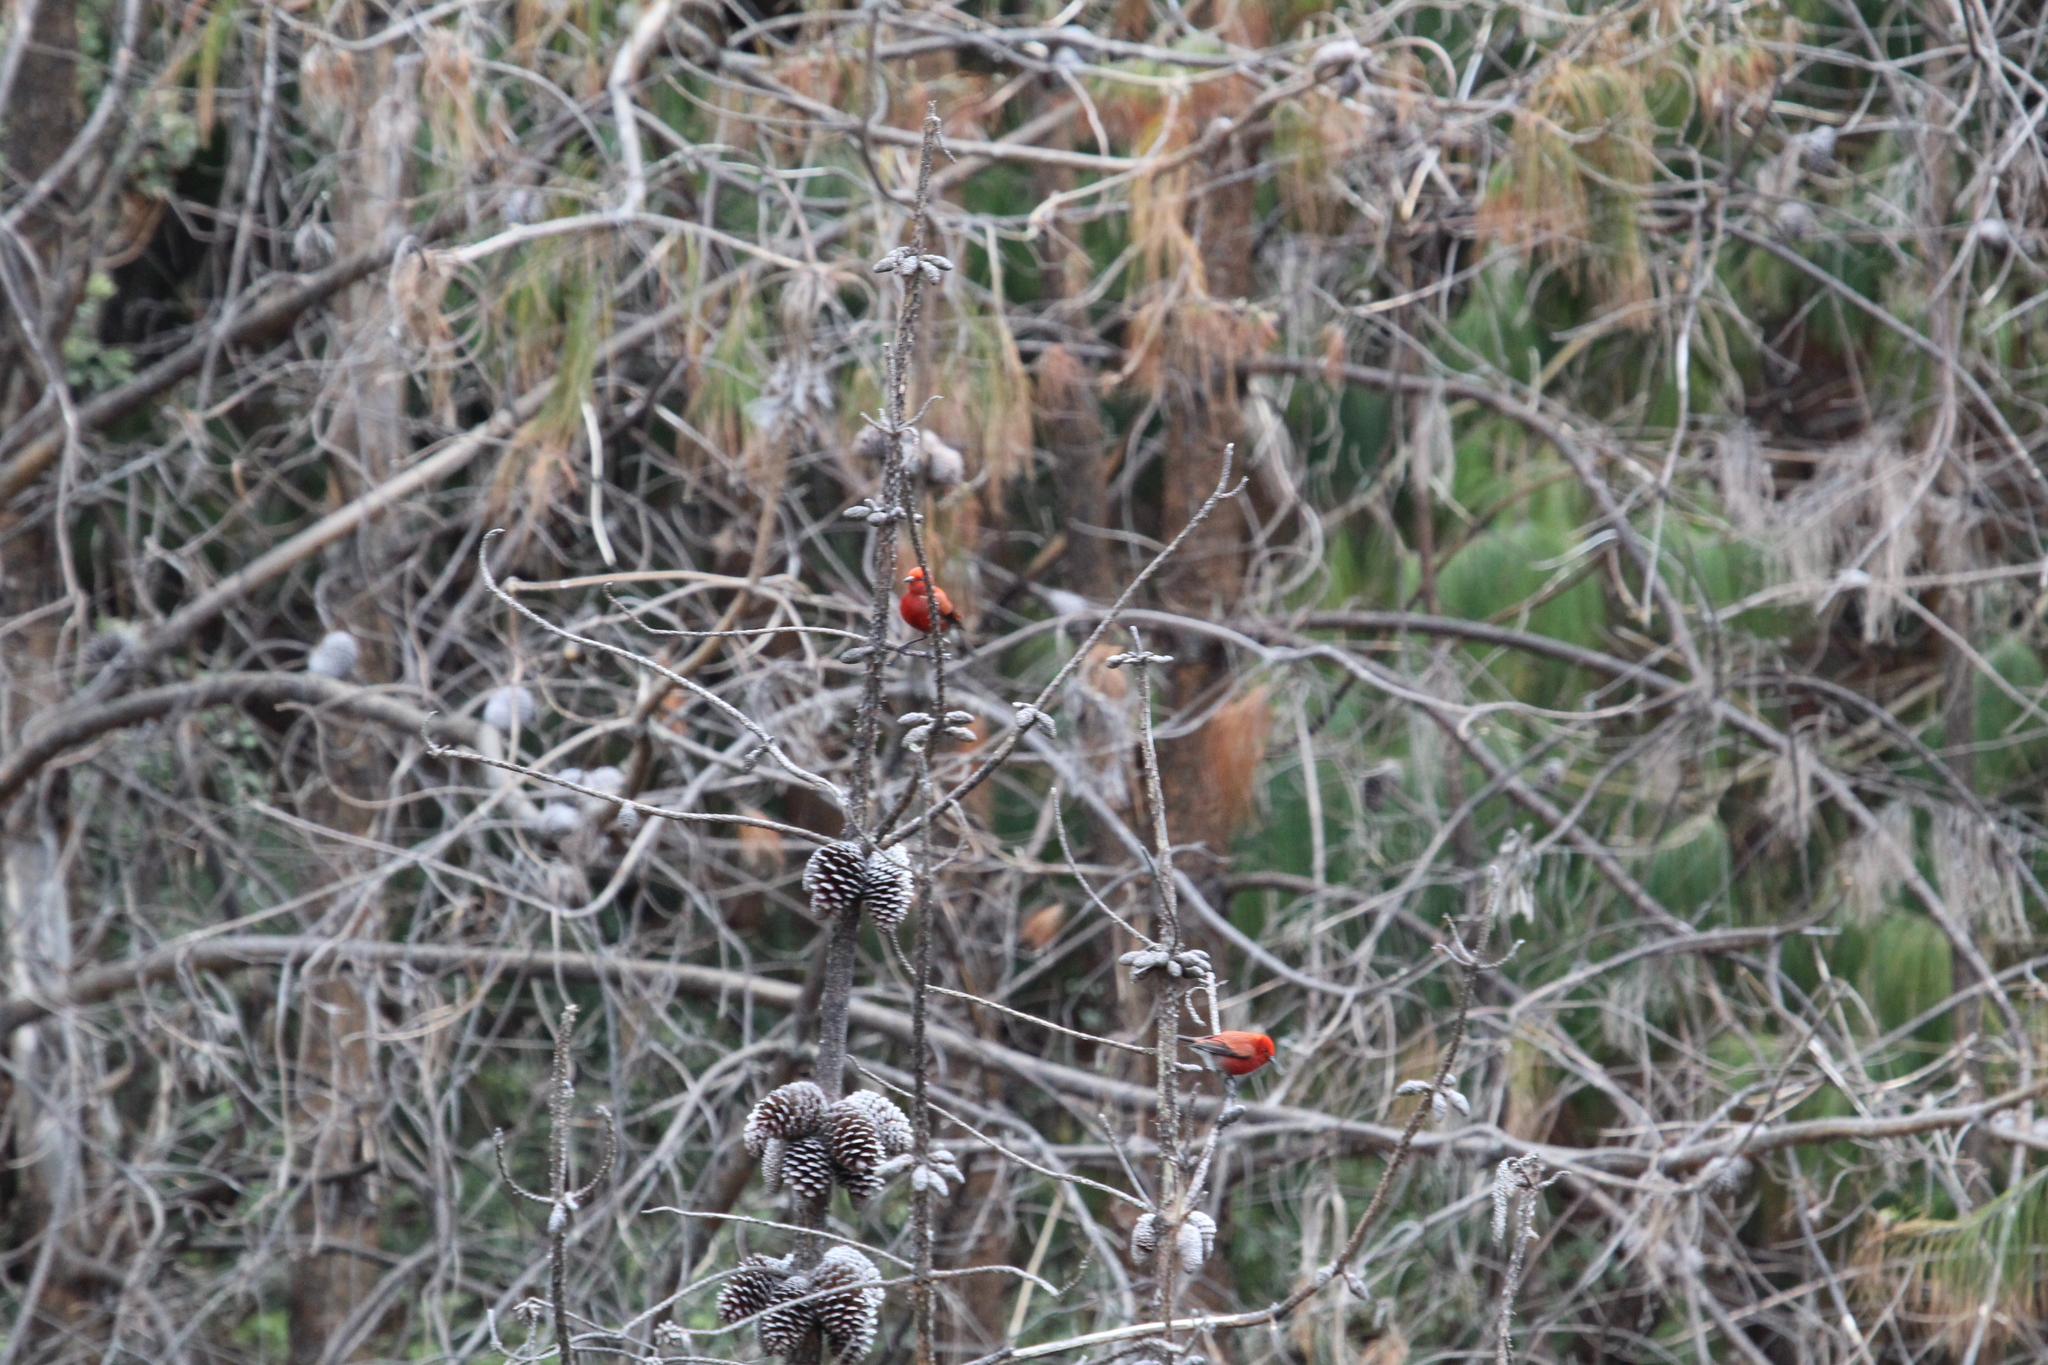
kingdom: Animalia
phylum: Chordata
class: Aves
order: Passeriformes
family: Fringillidae
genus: Himatione
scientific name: Himatione sanguinea
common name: Apapane
